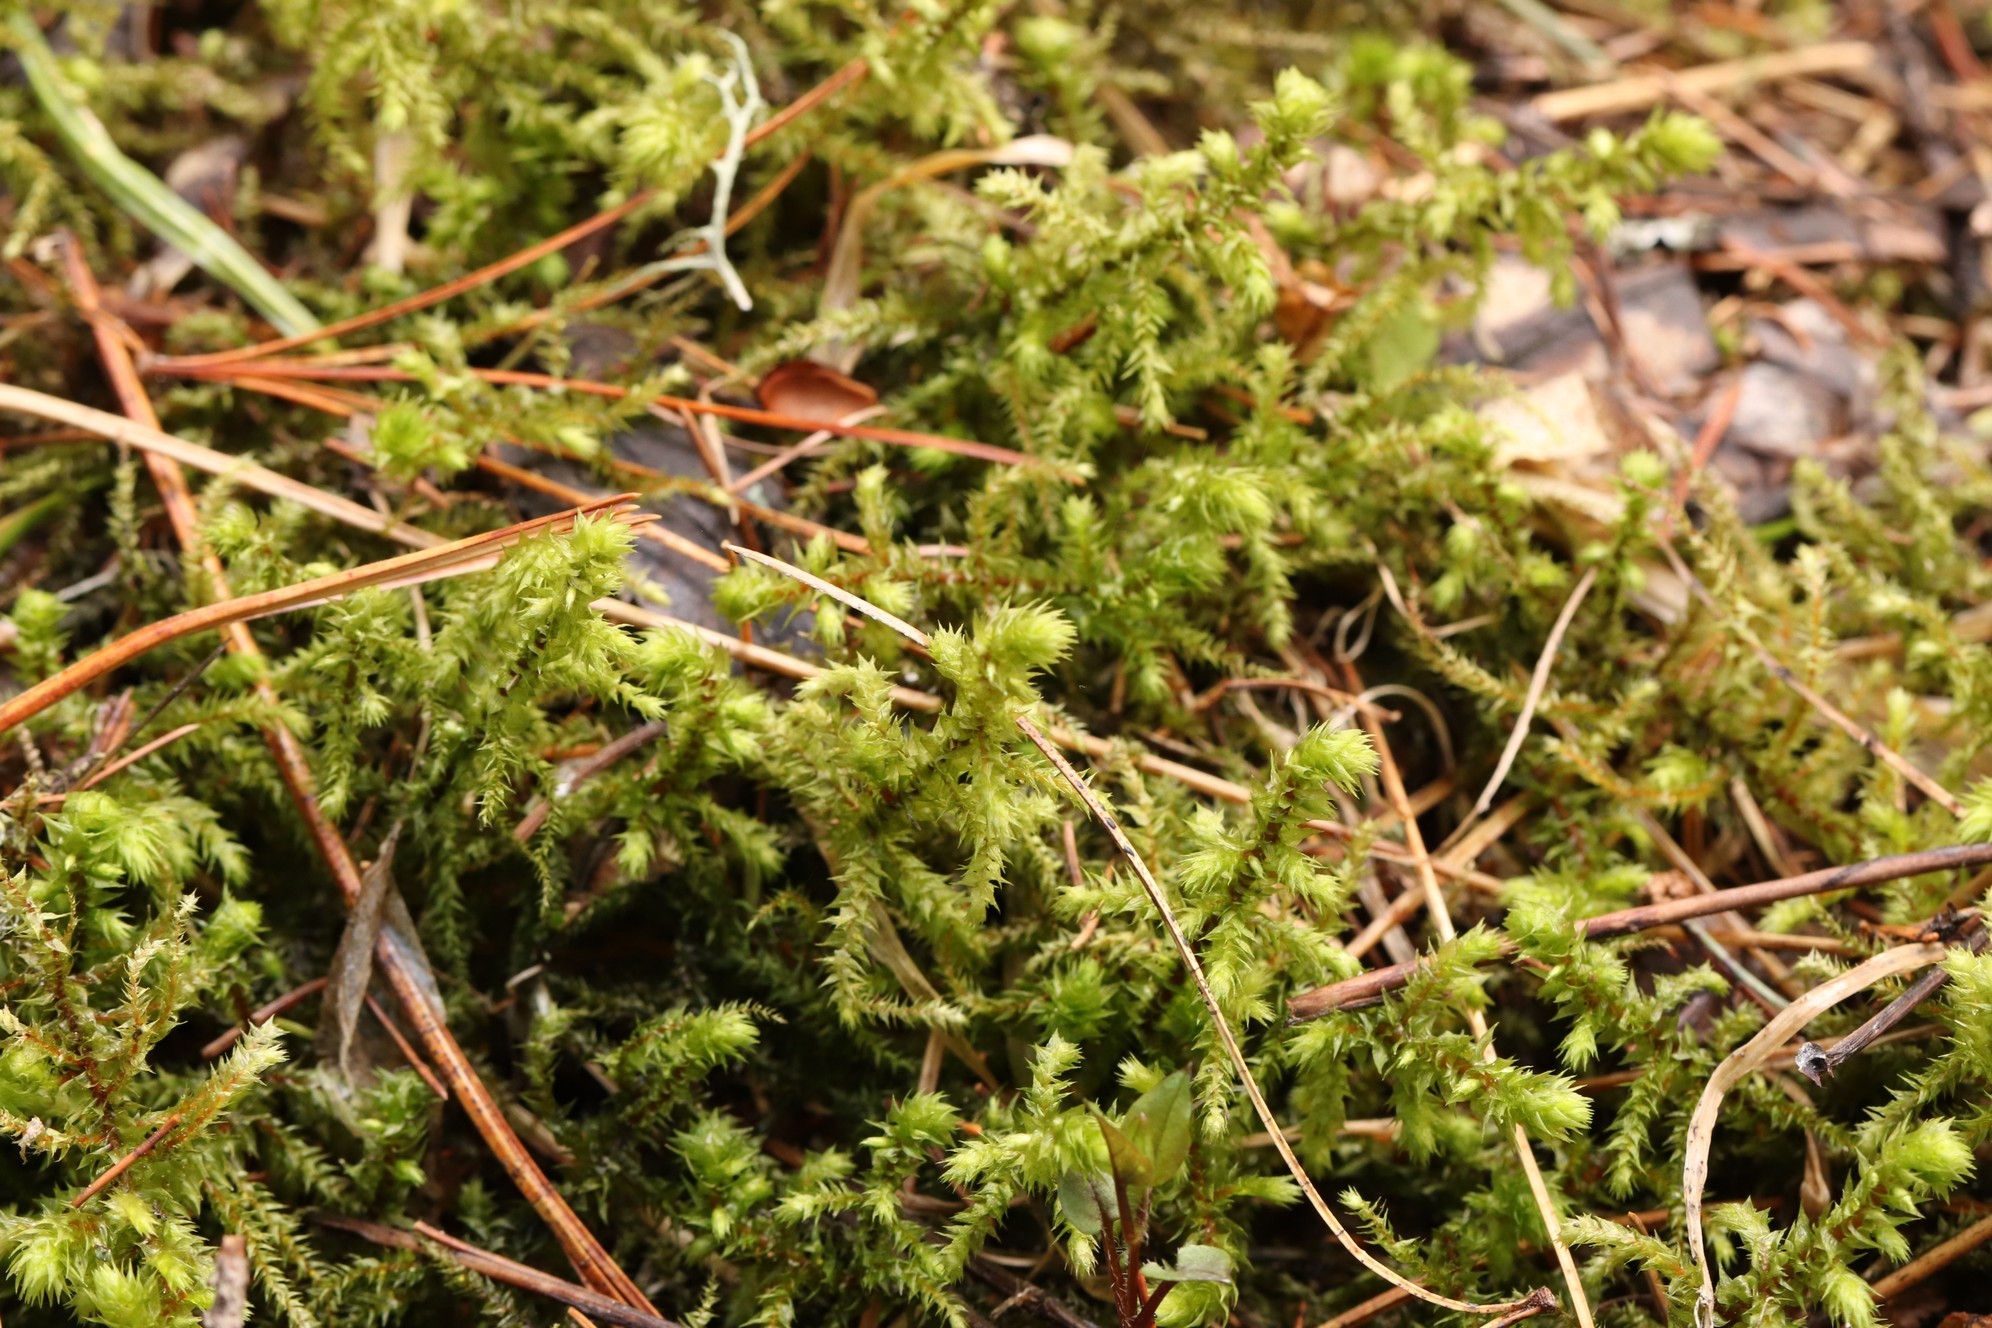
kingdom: Plantae
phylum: Bryophyta
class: Bryopsida
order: Hypnales
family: Hylocomiaceae
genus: Hylocomiadelphus
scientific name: Hylocomiadelphus triquetrus
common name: Rough goose neck moss
